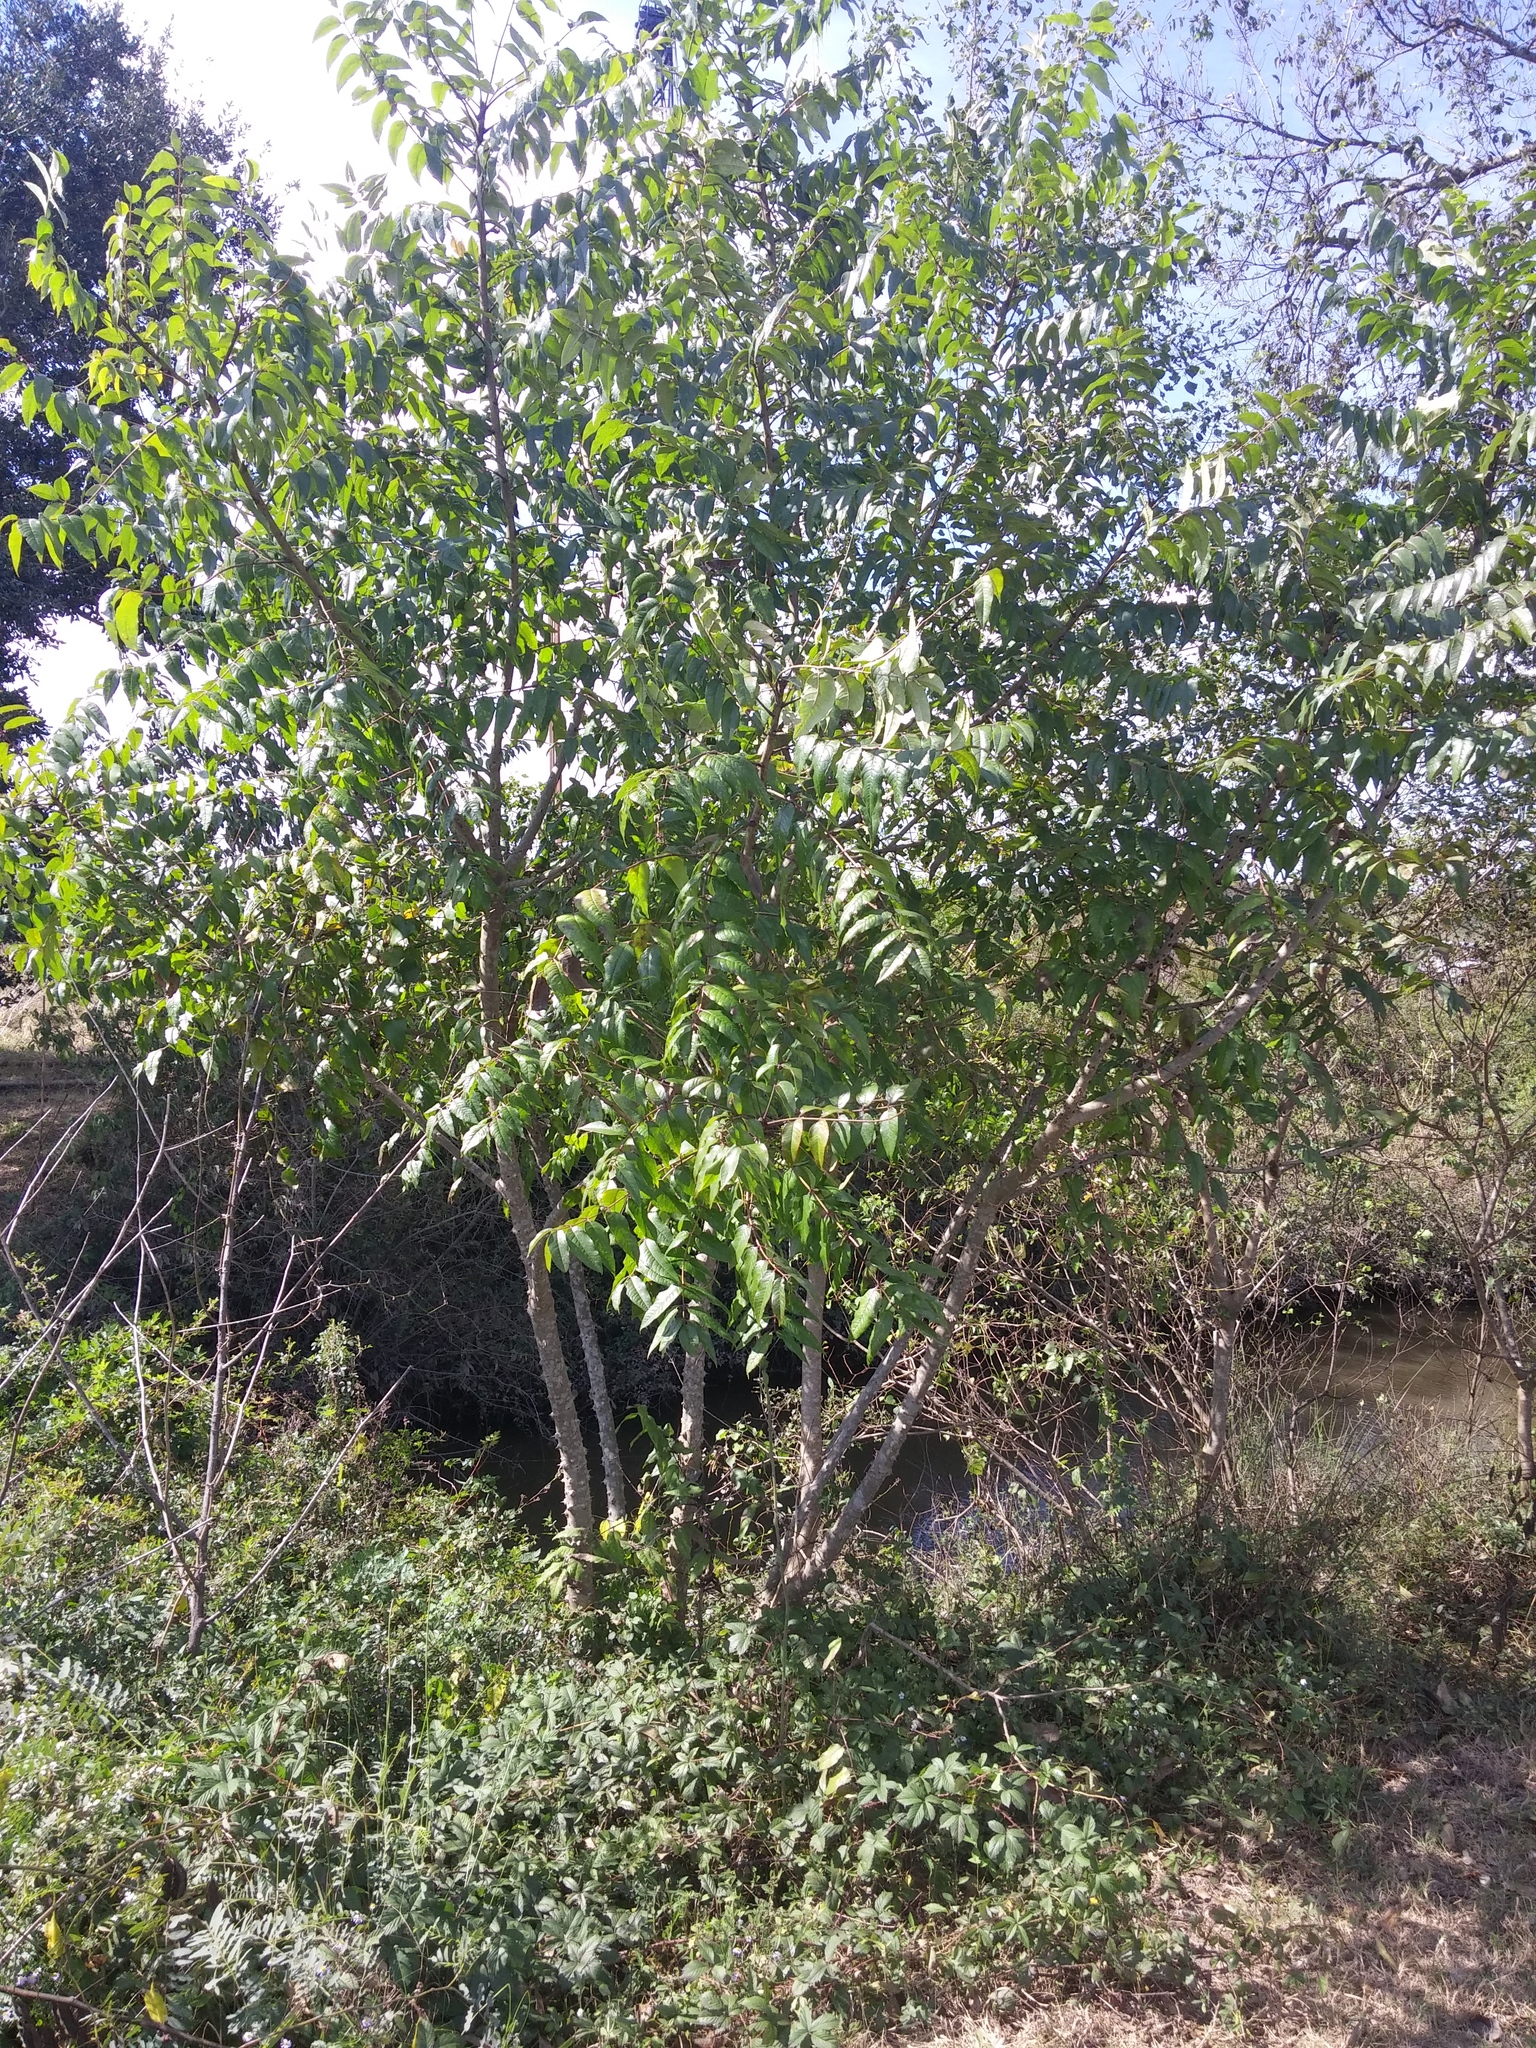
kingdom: Plantae
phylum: Tracheophyta
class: Magnoliopsida
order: Sapindales
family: Rutaceae
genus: Zanthoxylum
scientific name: Zanthoxylum clava-herculis
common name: Hercules'-club
